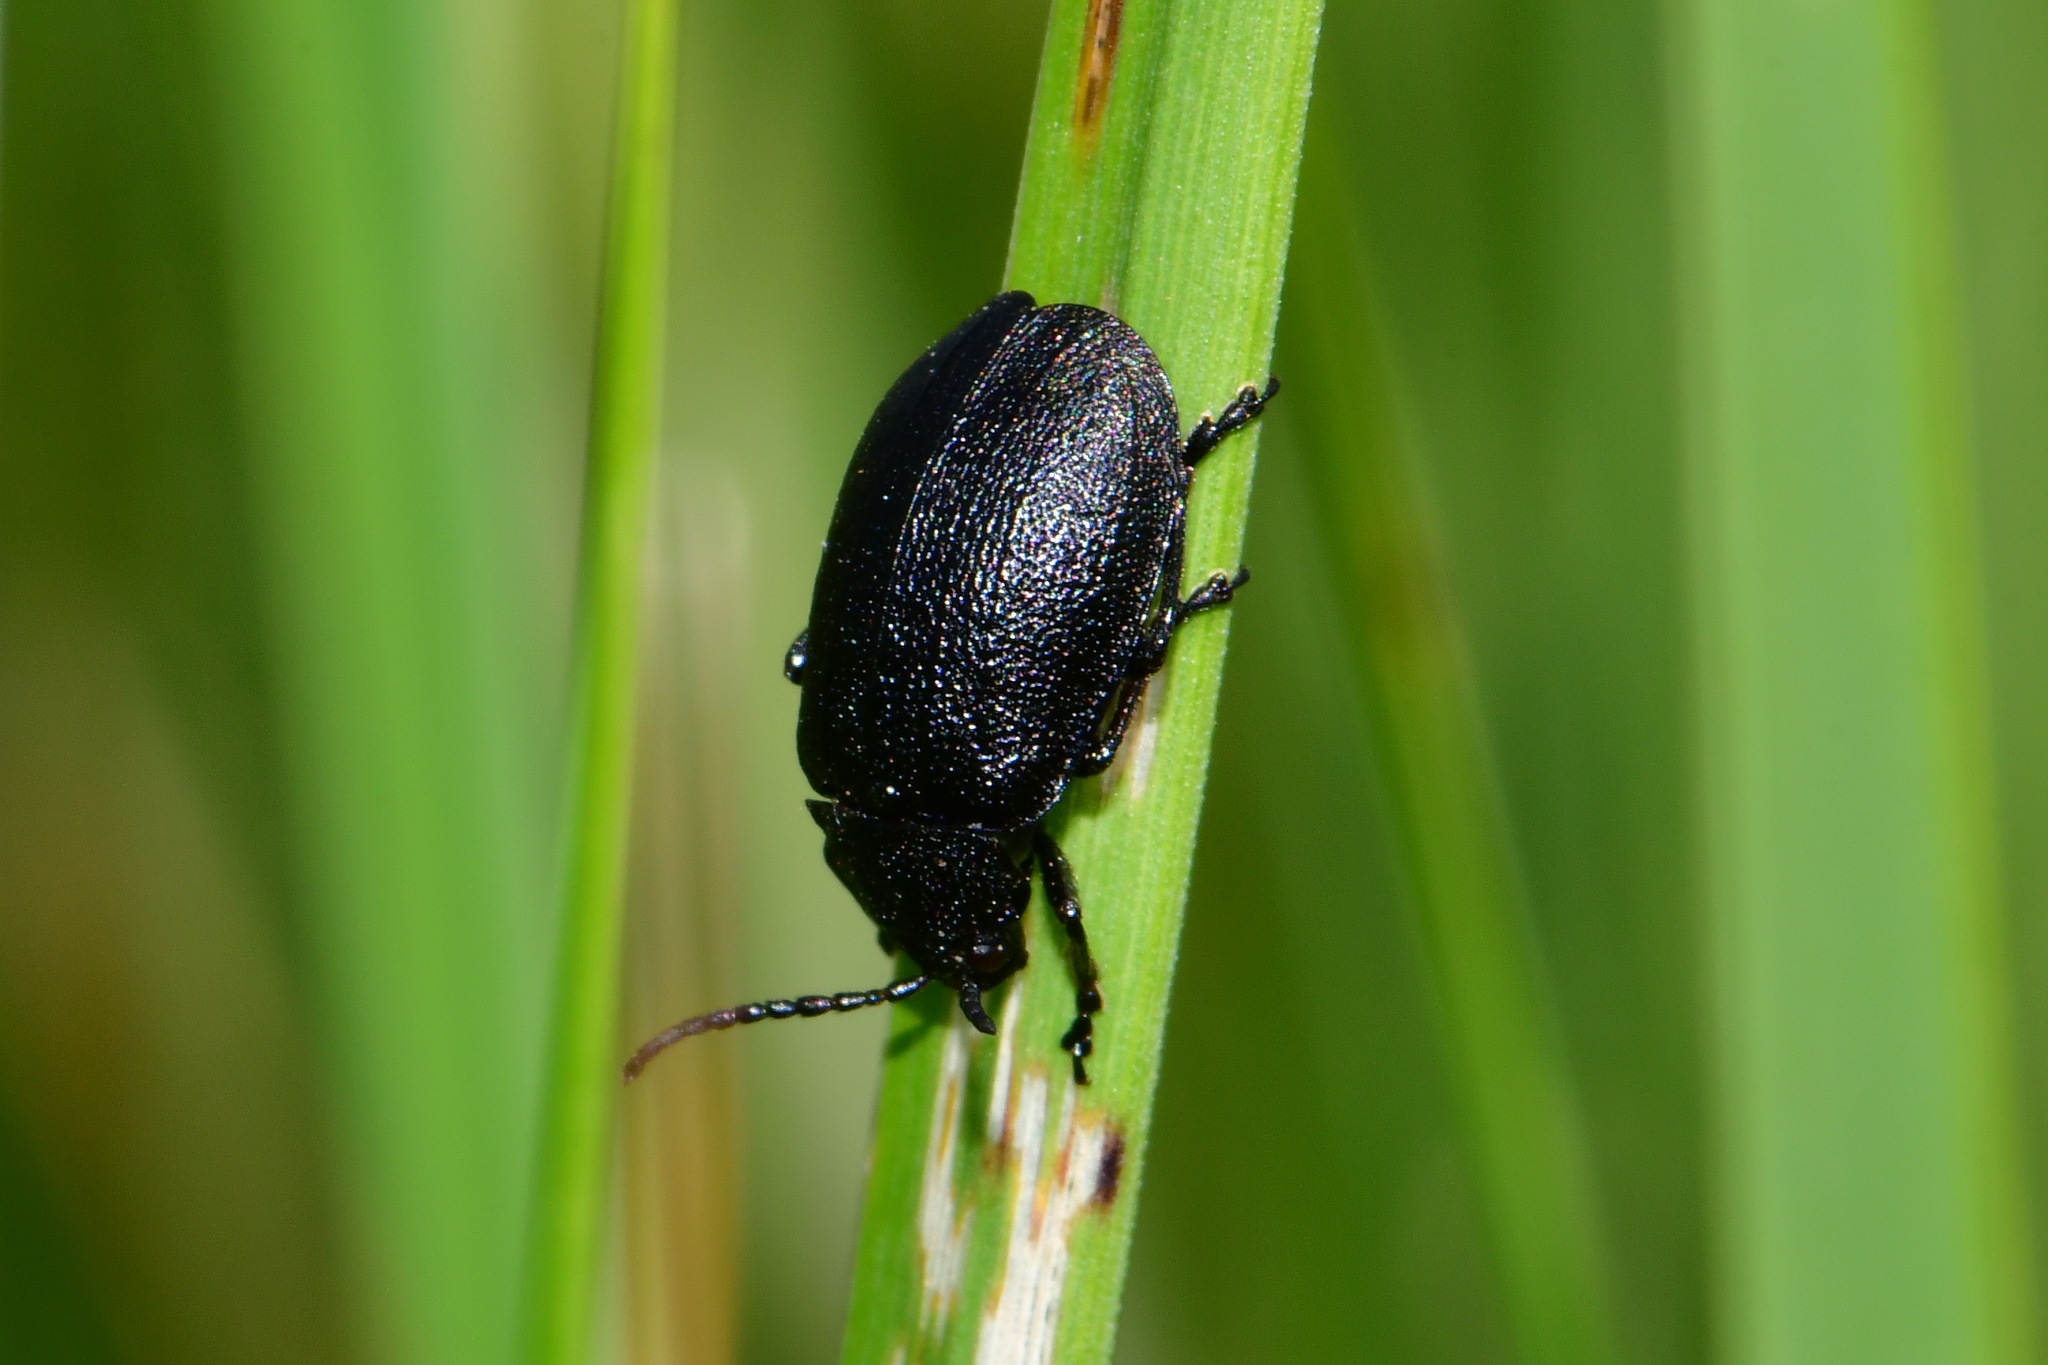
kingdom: Animalia
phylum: Arthropoda
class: Insecta
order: Coleoptera
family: Chrysomelidae
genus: Galeruca
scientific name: Galeruca tanaceti
